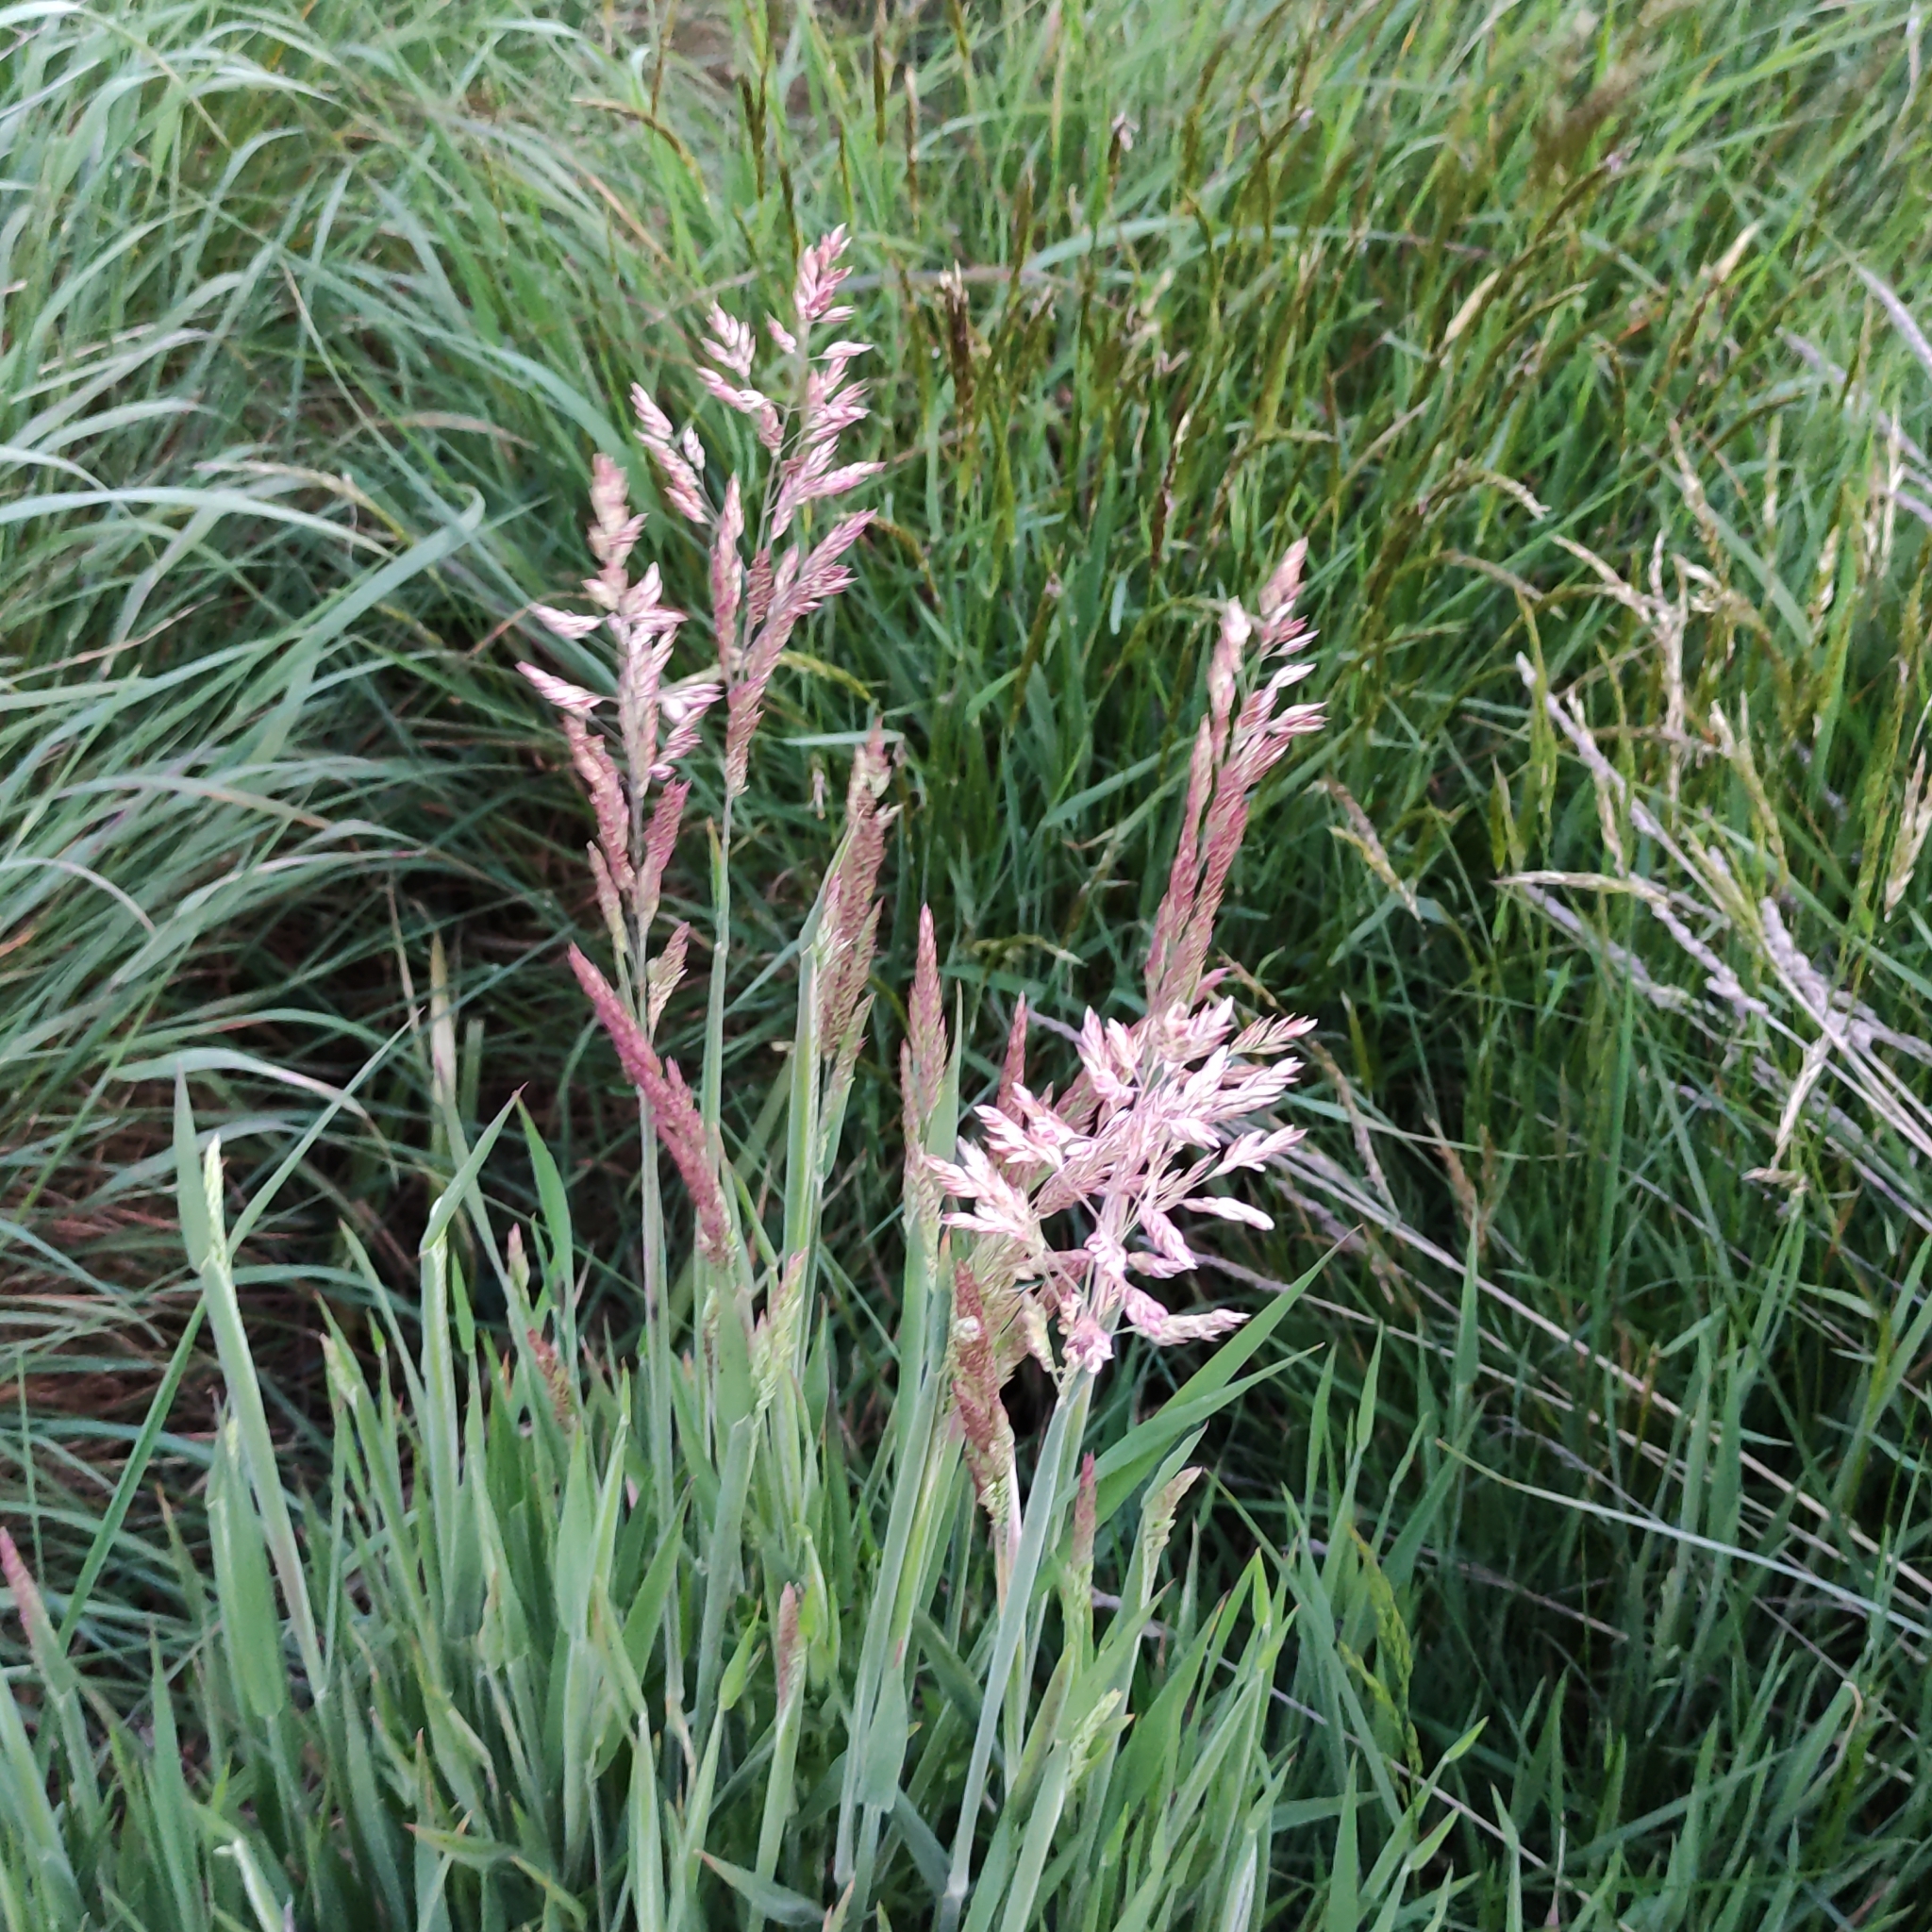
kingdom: Plantae
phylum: Tracheophyta
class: Liliopsida
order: Poales
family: Poaceae
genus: Holcus
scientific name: Holcus lanatus
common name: Yorkshire-fog
